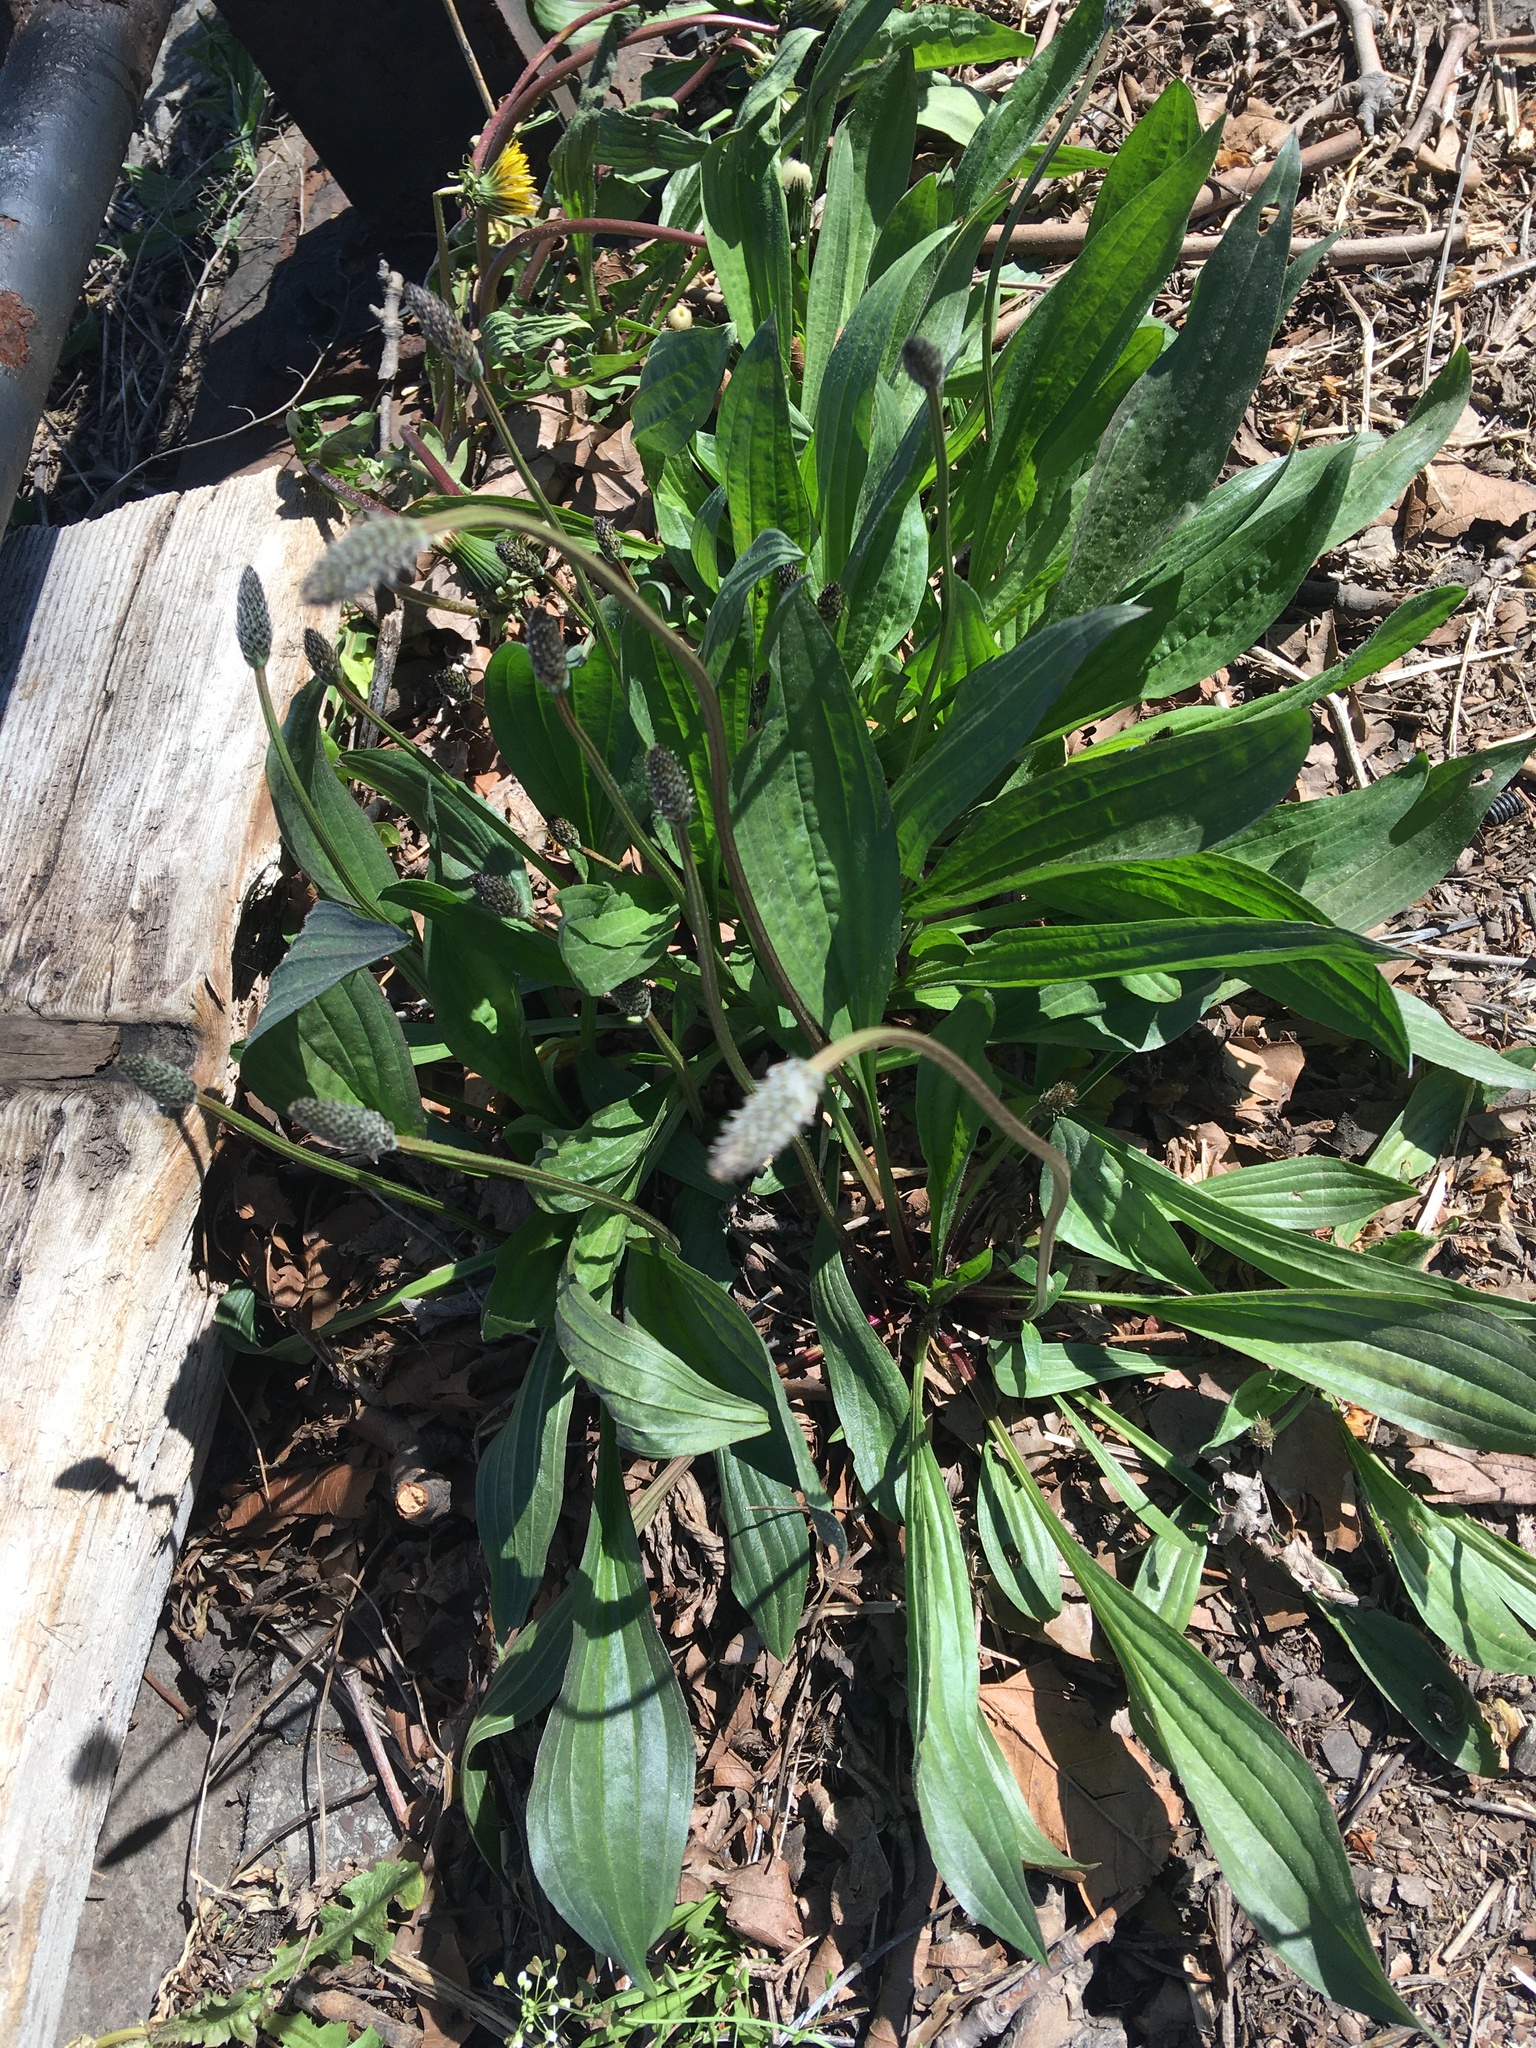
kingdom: Plantae
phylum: Tracheophyta
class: Magnoliopsida
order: Lamiales
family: Plantaginaceae
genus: Plantago
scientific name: Plantago lanceolata
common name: Ribwort plantain
